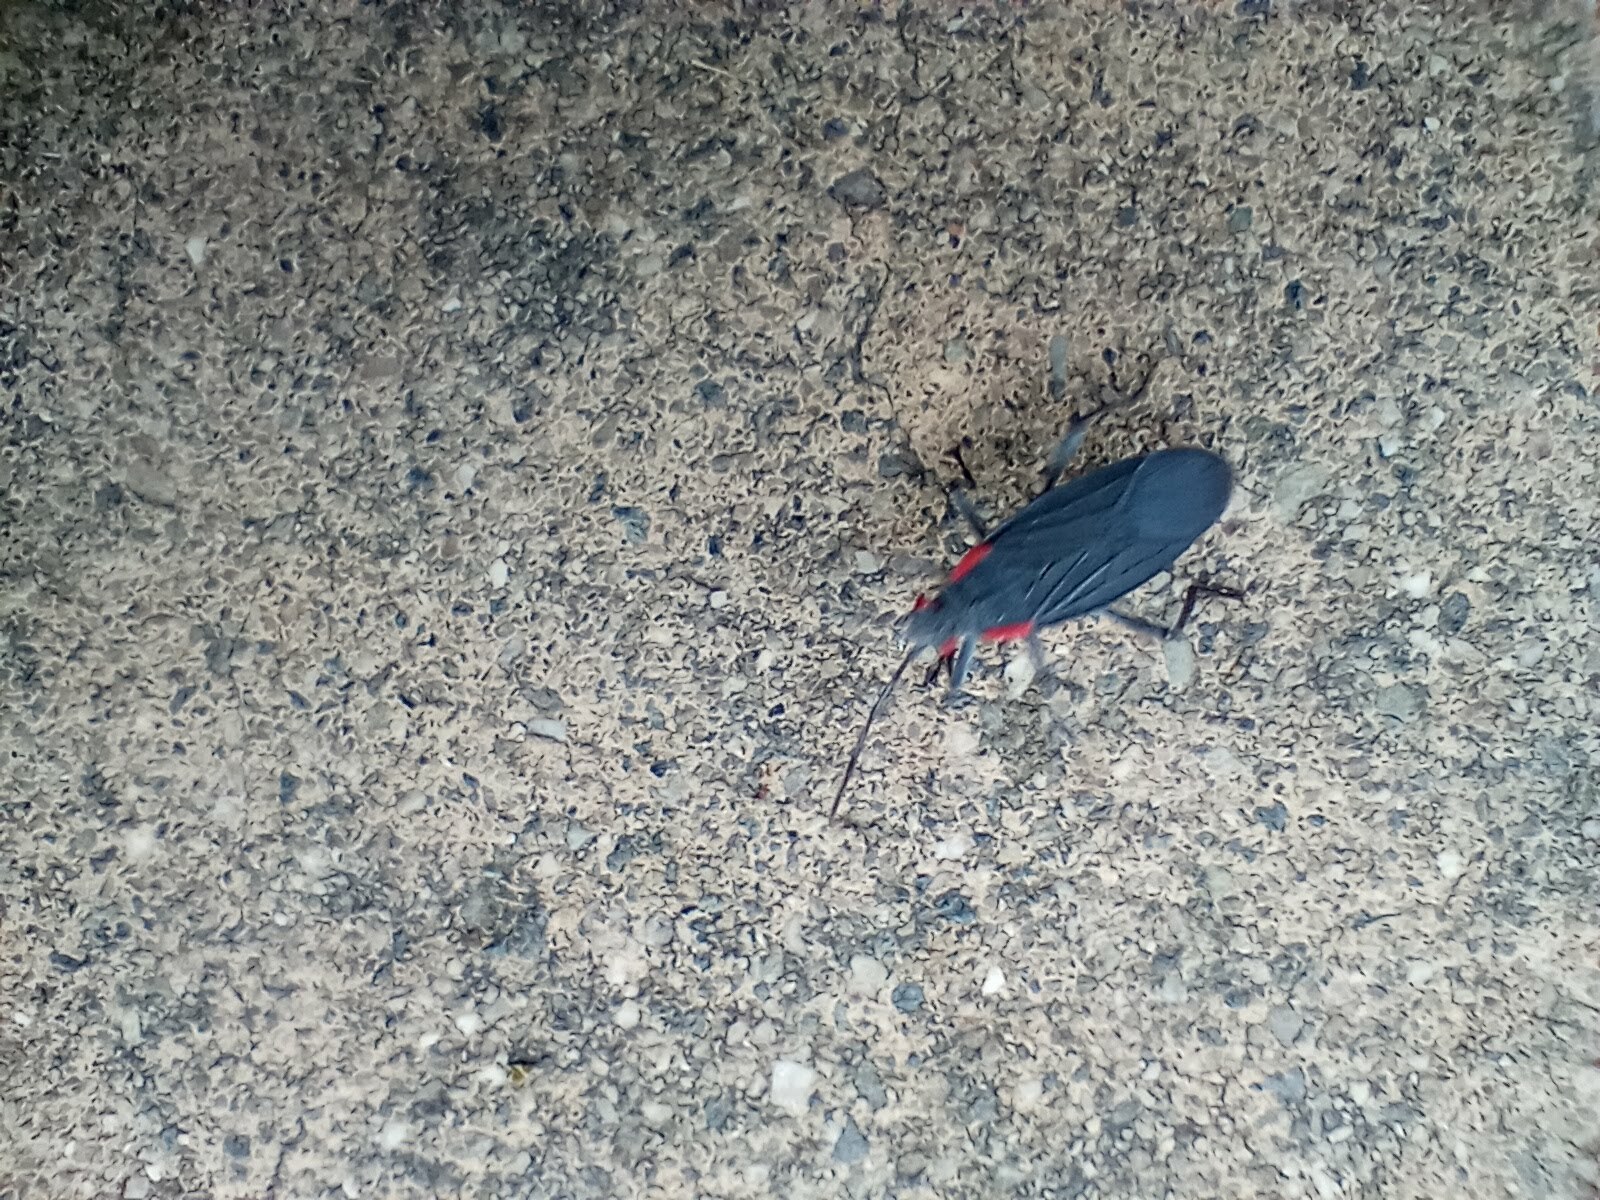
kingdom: Animalia
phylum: Arthropoda
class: Insecta
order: Hemiptera
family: Rhopalidae
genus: Jadera
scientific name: Jadera haematoloma
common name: Red-shouldered bug
